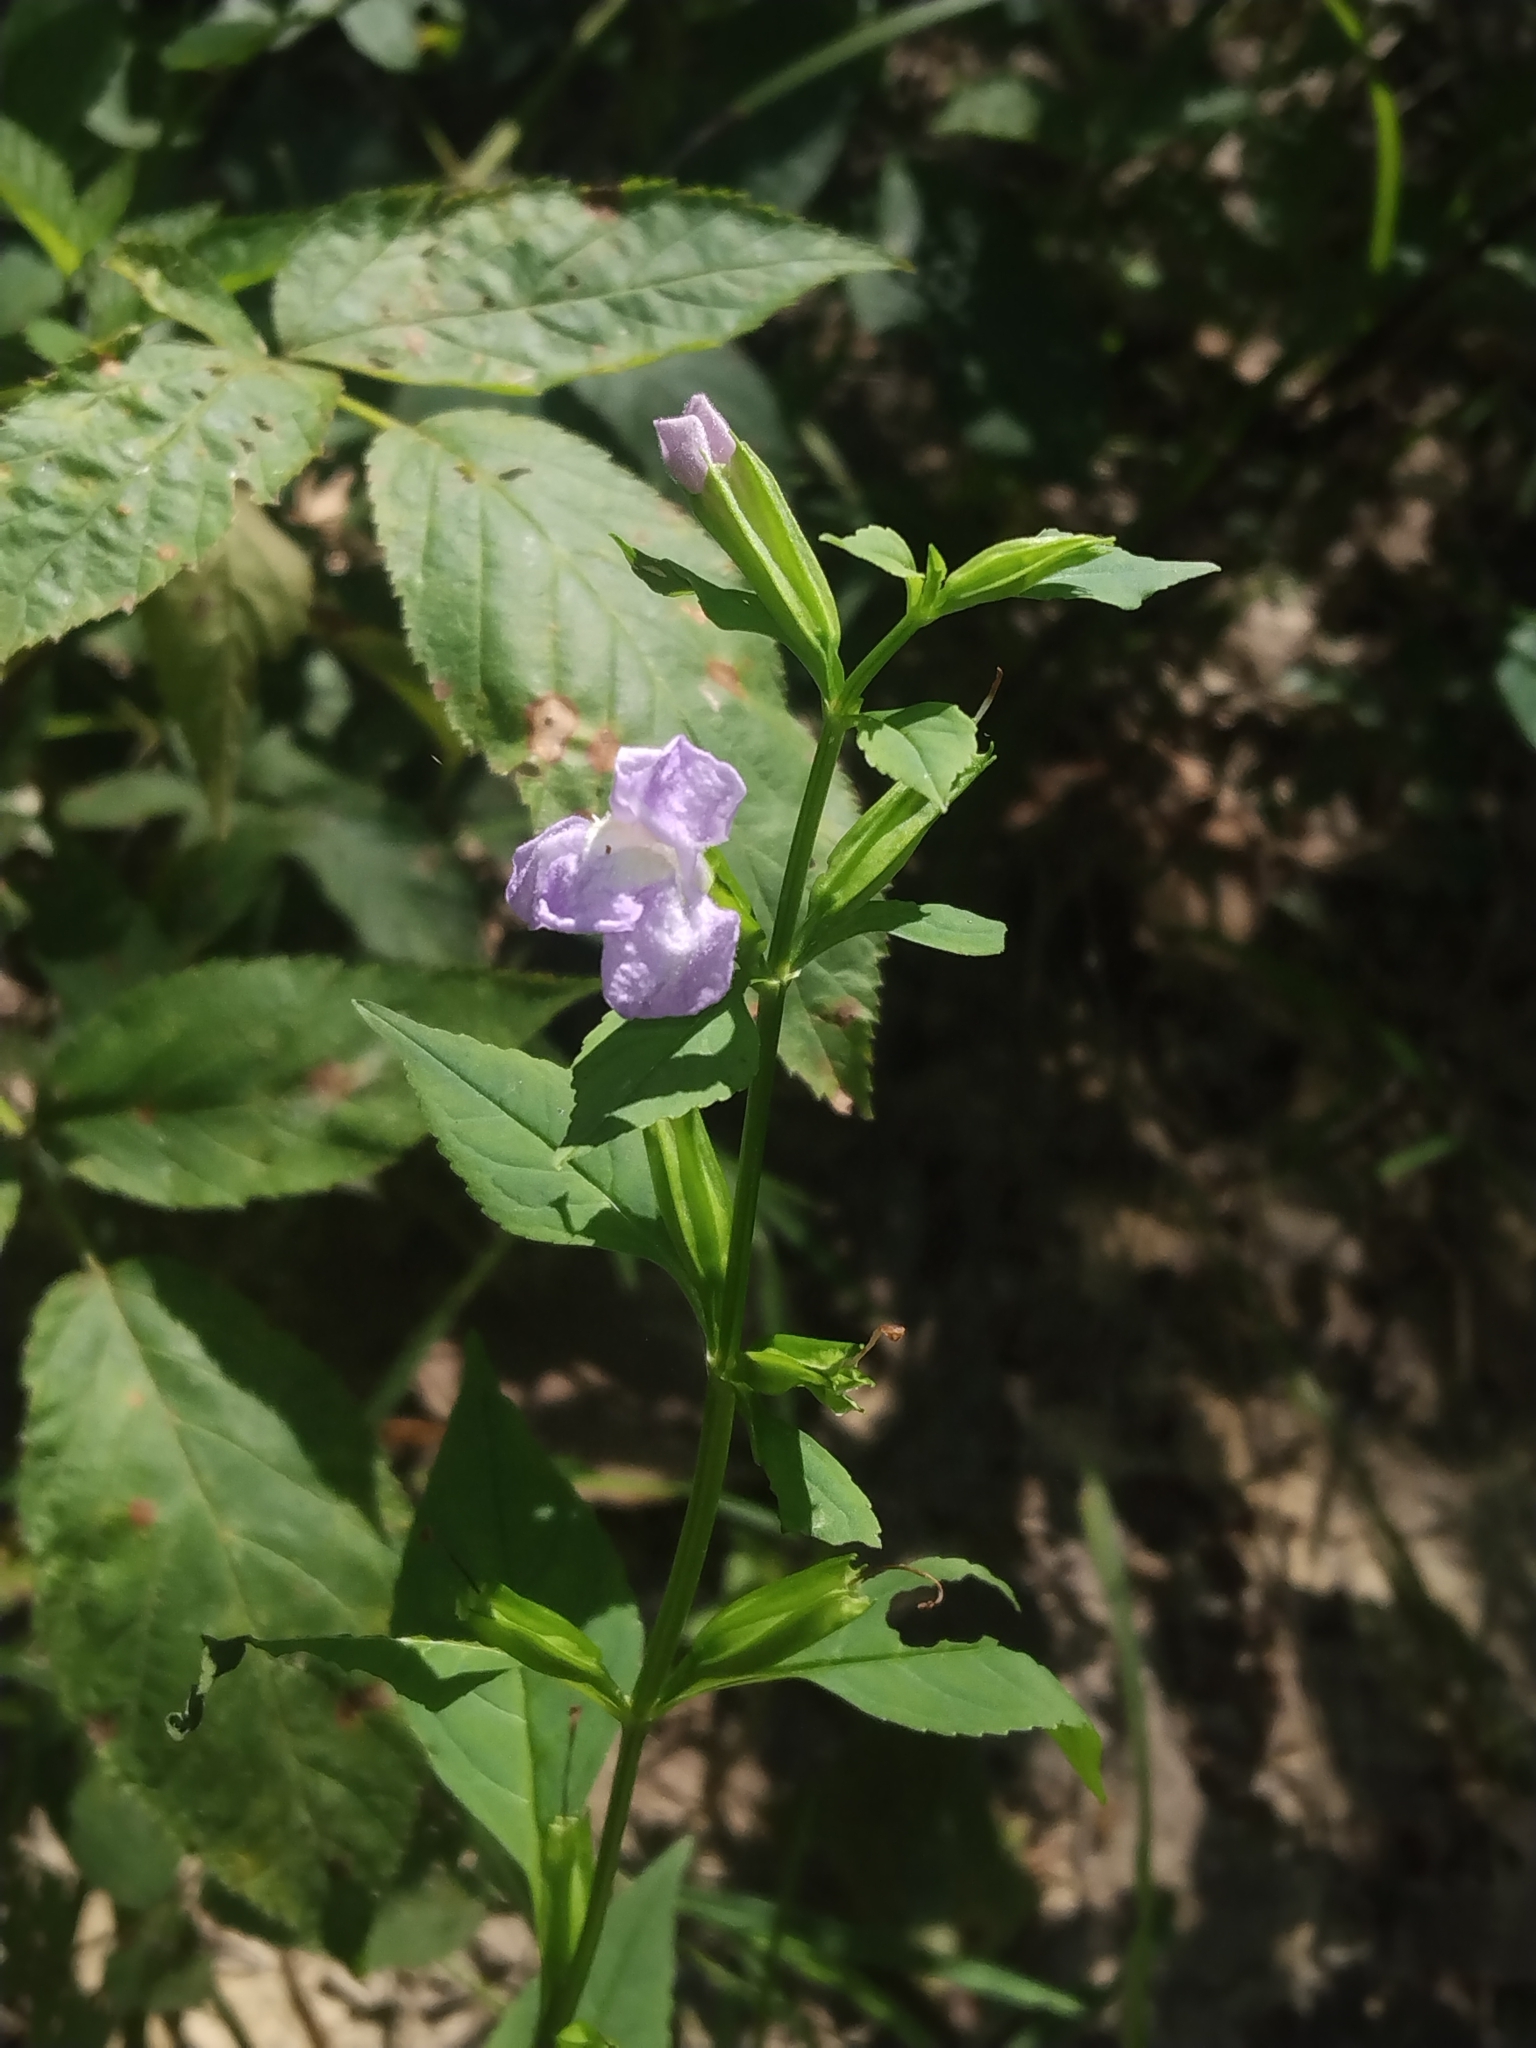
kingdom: Plantae
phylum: Tracheophyta
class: Magnoliopsida
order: Lamiales
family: Phrymaceae
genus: Mimulus
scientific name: Mimulus alatus
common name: Sharp-wing monkey-flower
